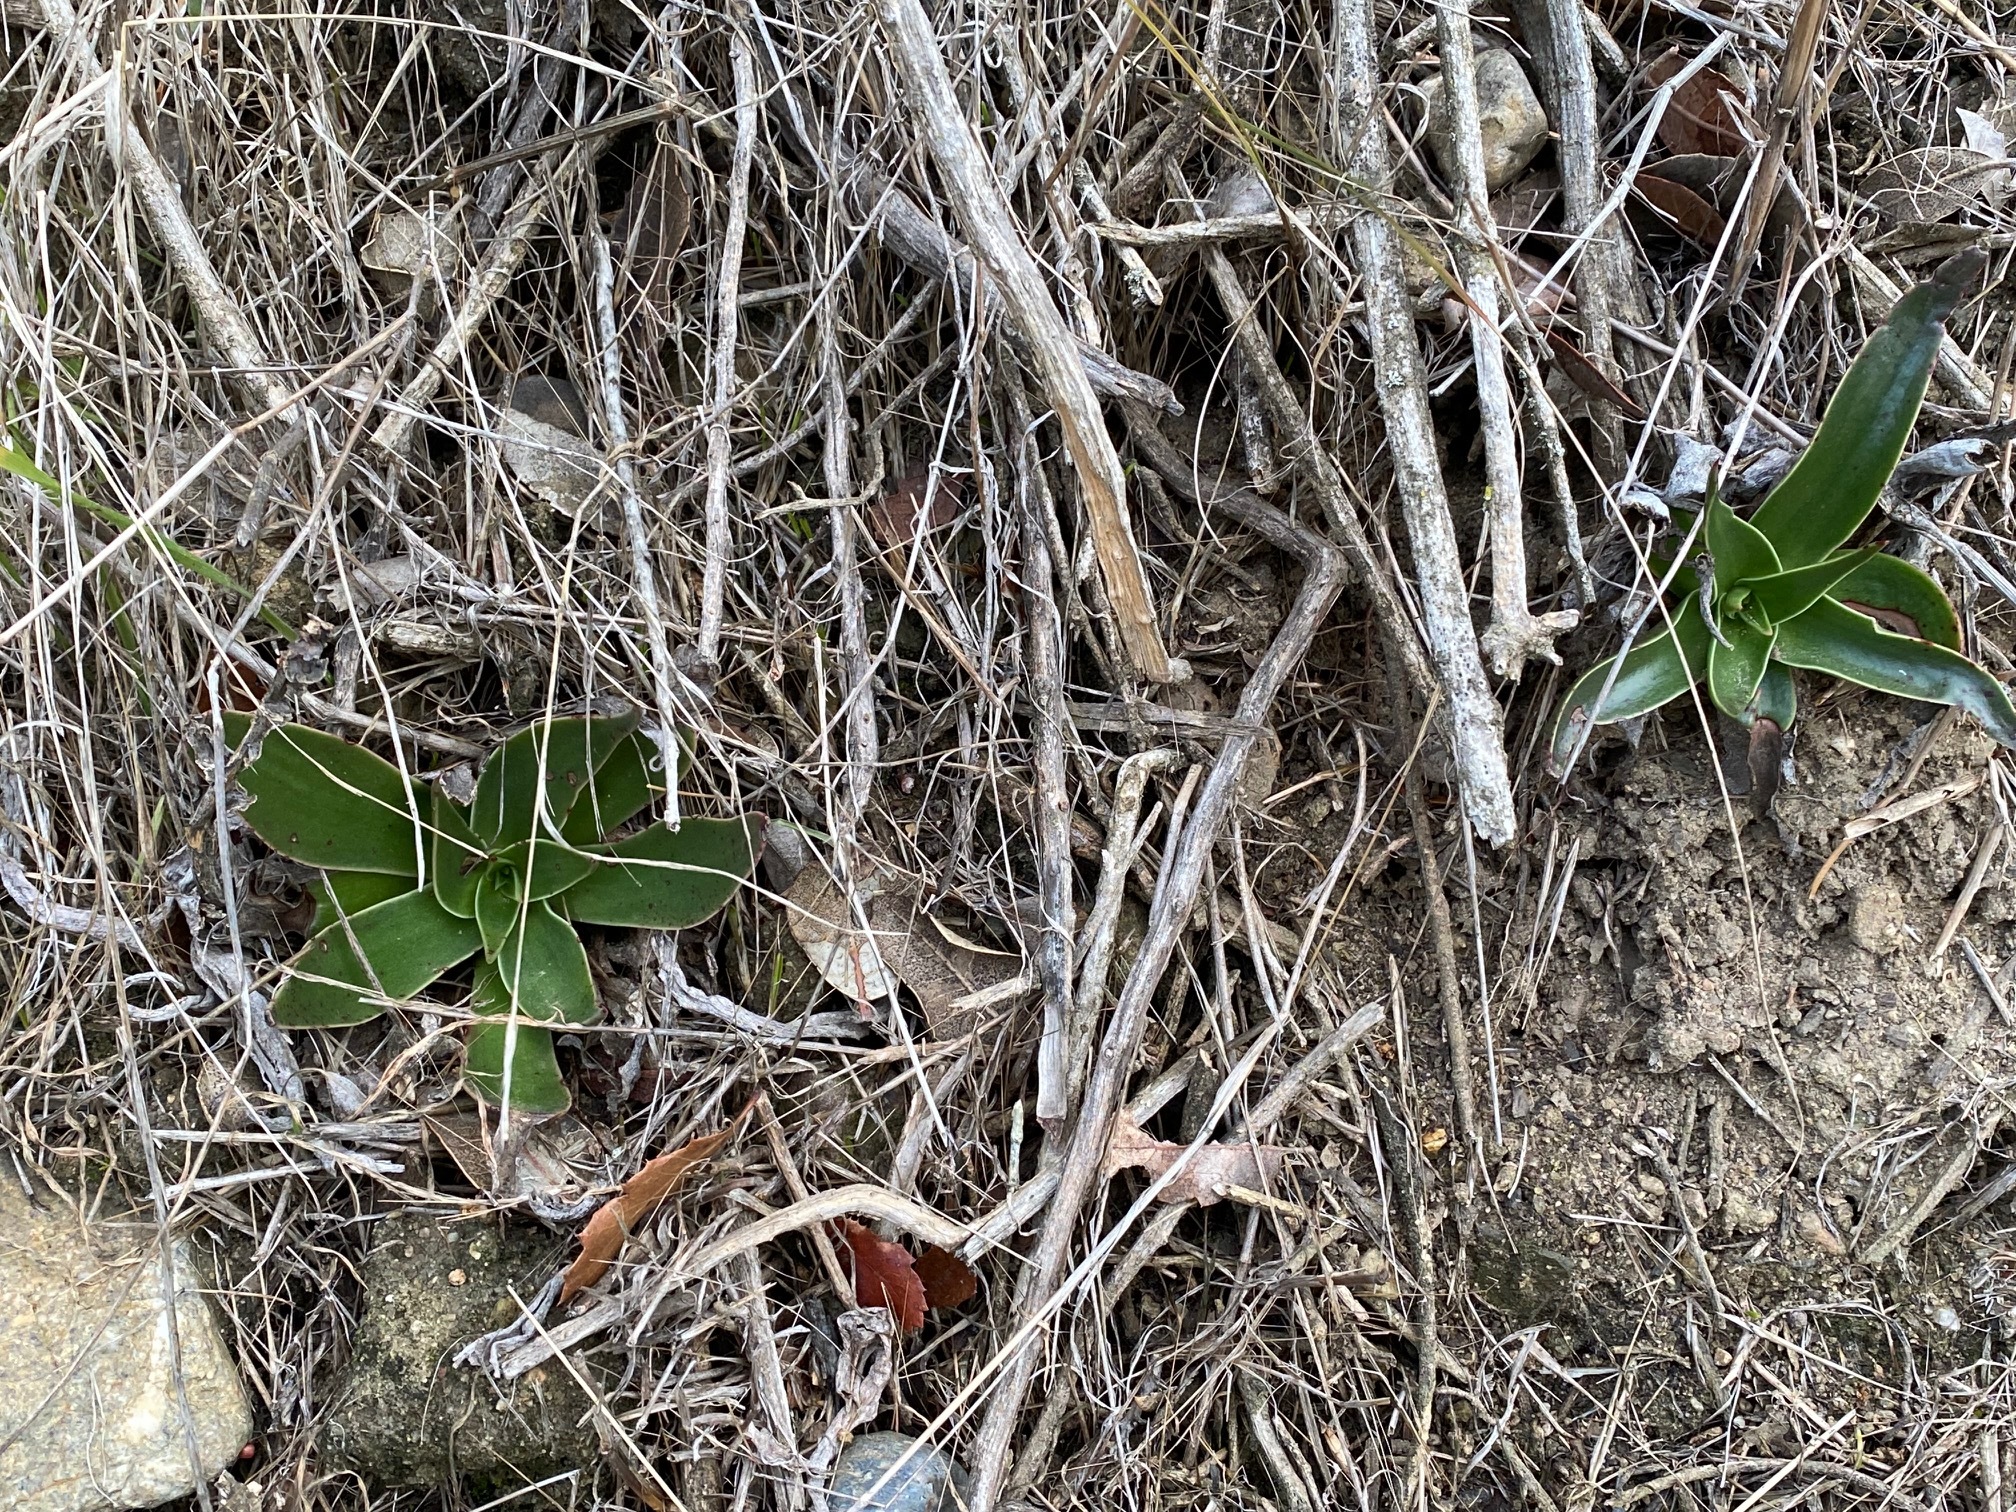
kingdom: Plantae
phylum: Tracheophyta
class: Magnoliopsida
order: Saxifragales
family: Crassulaceae
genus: Dudleya
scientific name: Dudleya lanceolata
